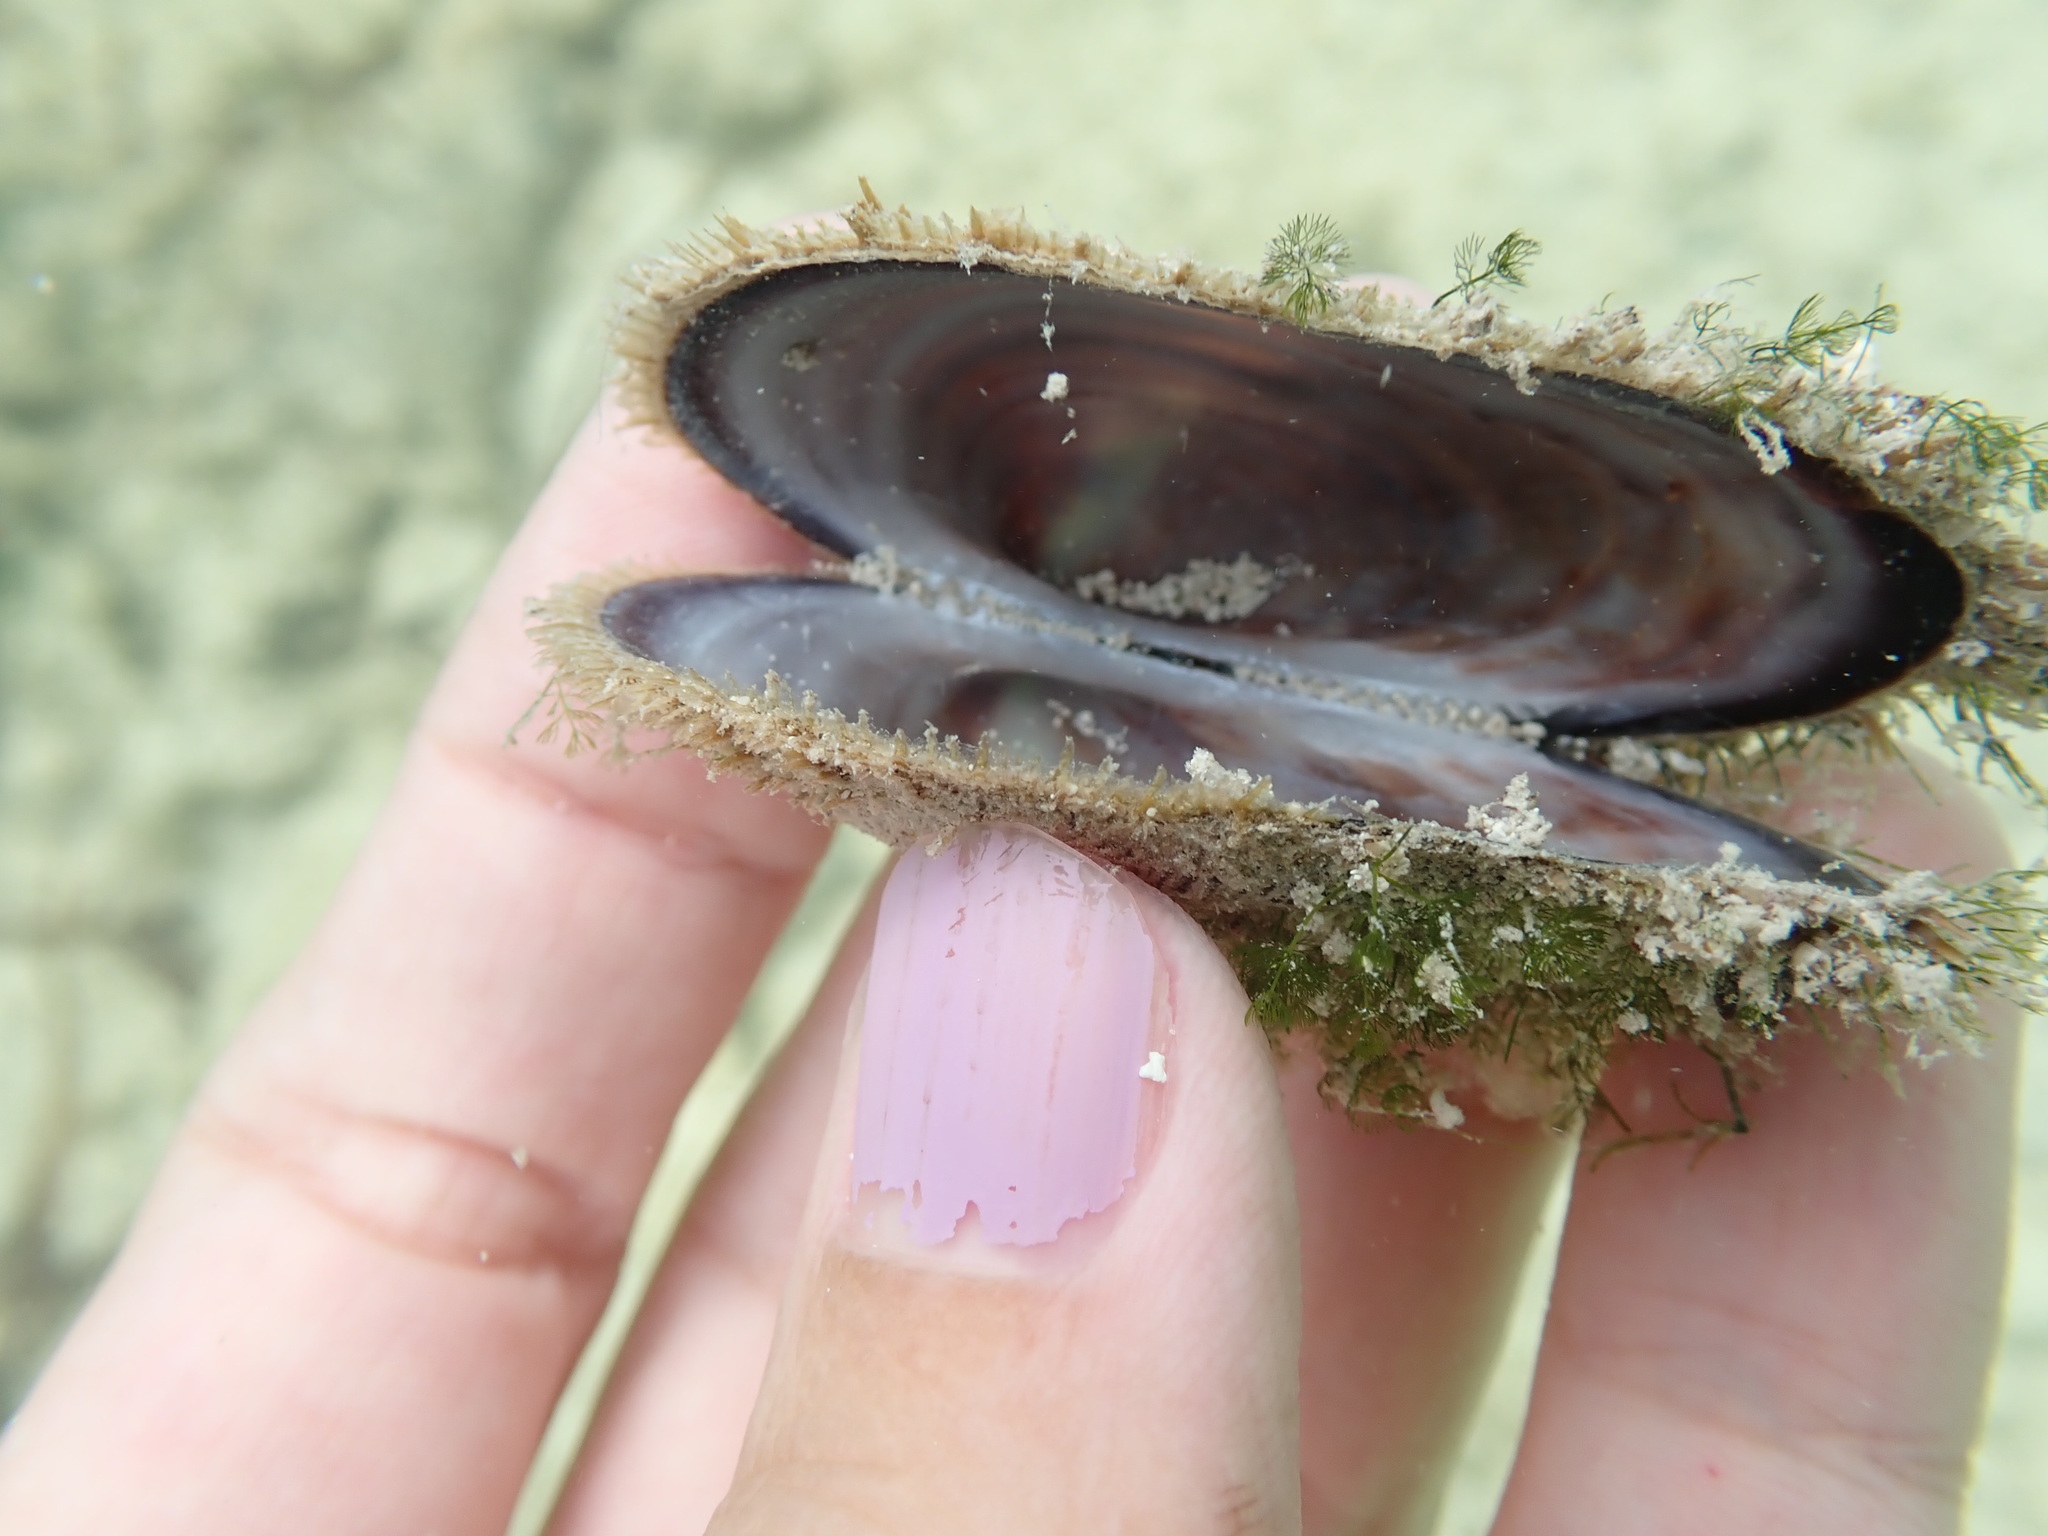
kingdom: Animalia
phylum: Mollusca
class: Bivalvia
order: Arcida
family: Arcidae
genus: Barbatia
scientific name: Barbatia domingensis
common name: White miniature ark
